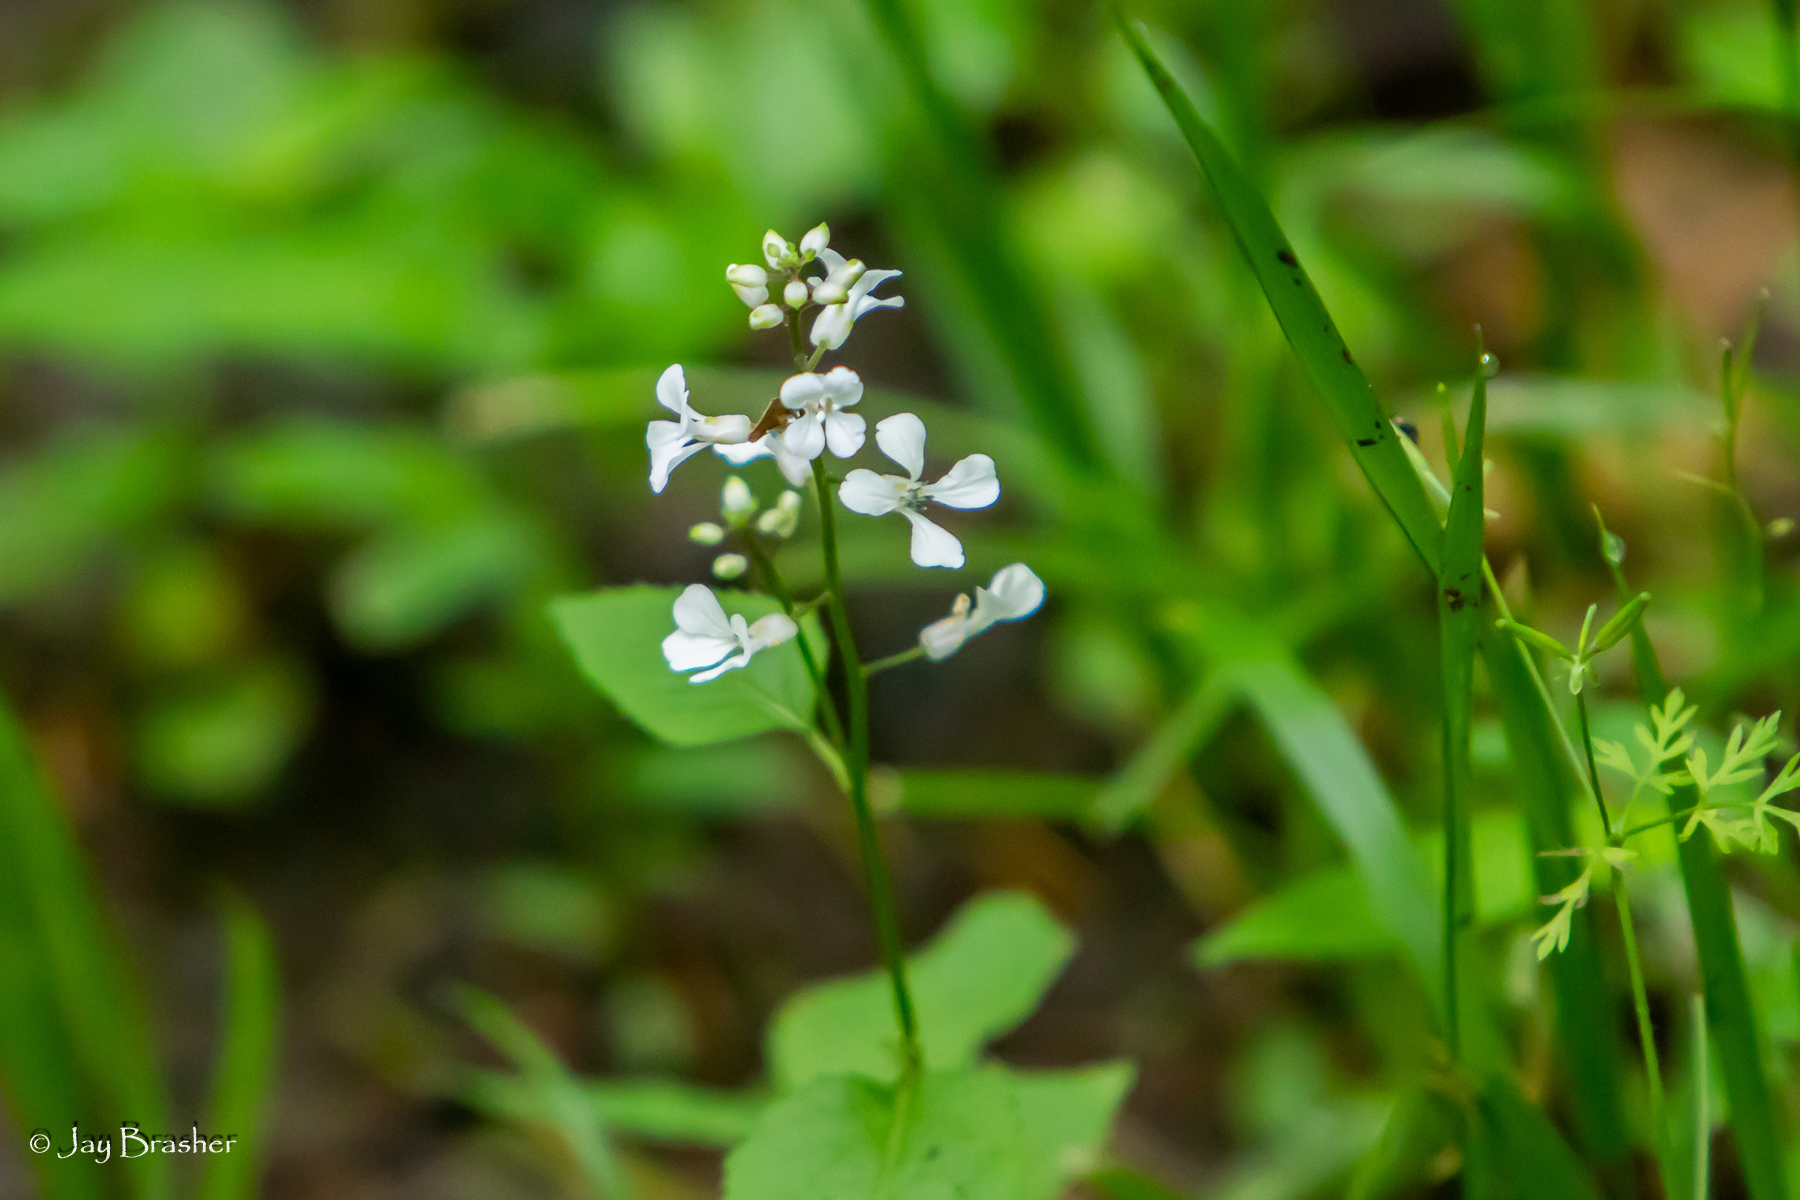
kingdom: Plantae
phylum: Tracheophyta
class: Magnoliopsida
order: Brassicales
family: Brassicaceae
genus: Iodanthus
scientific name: Iodanthus pinnatifidus
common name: Violet rocket
